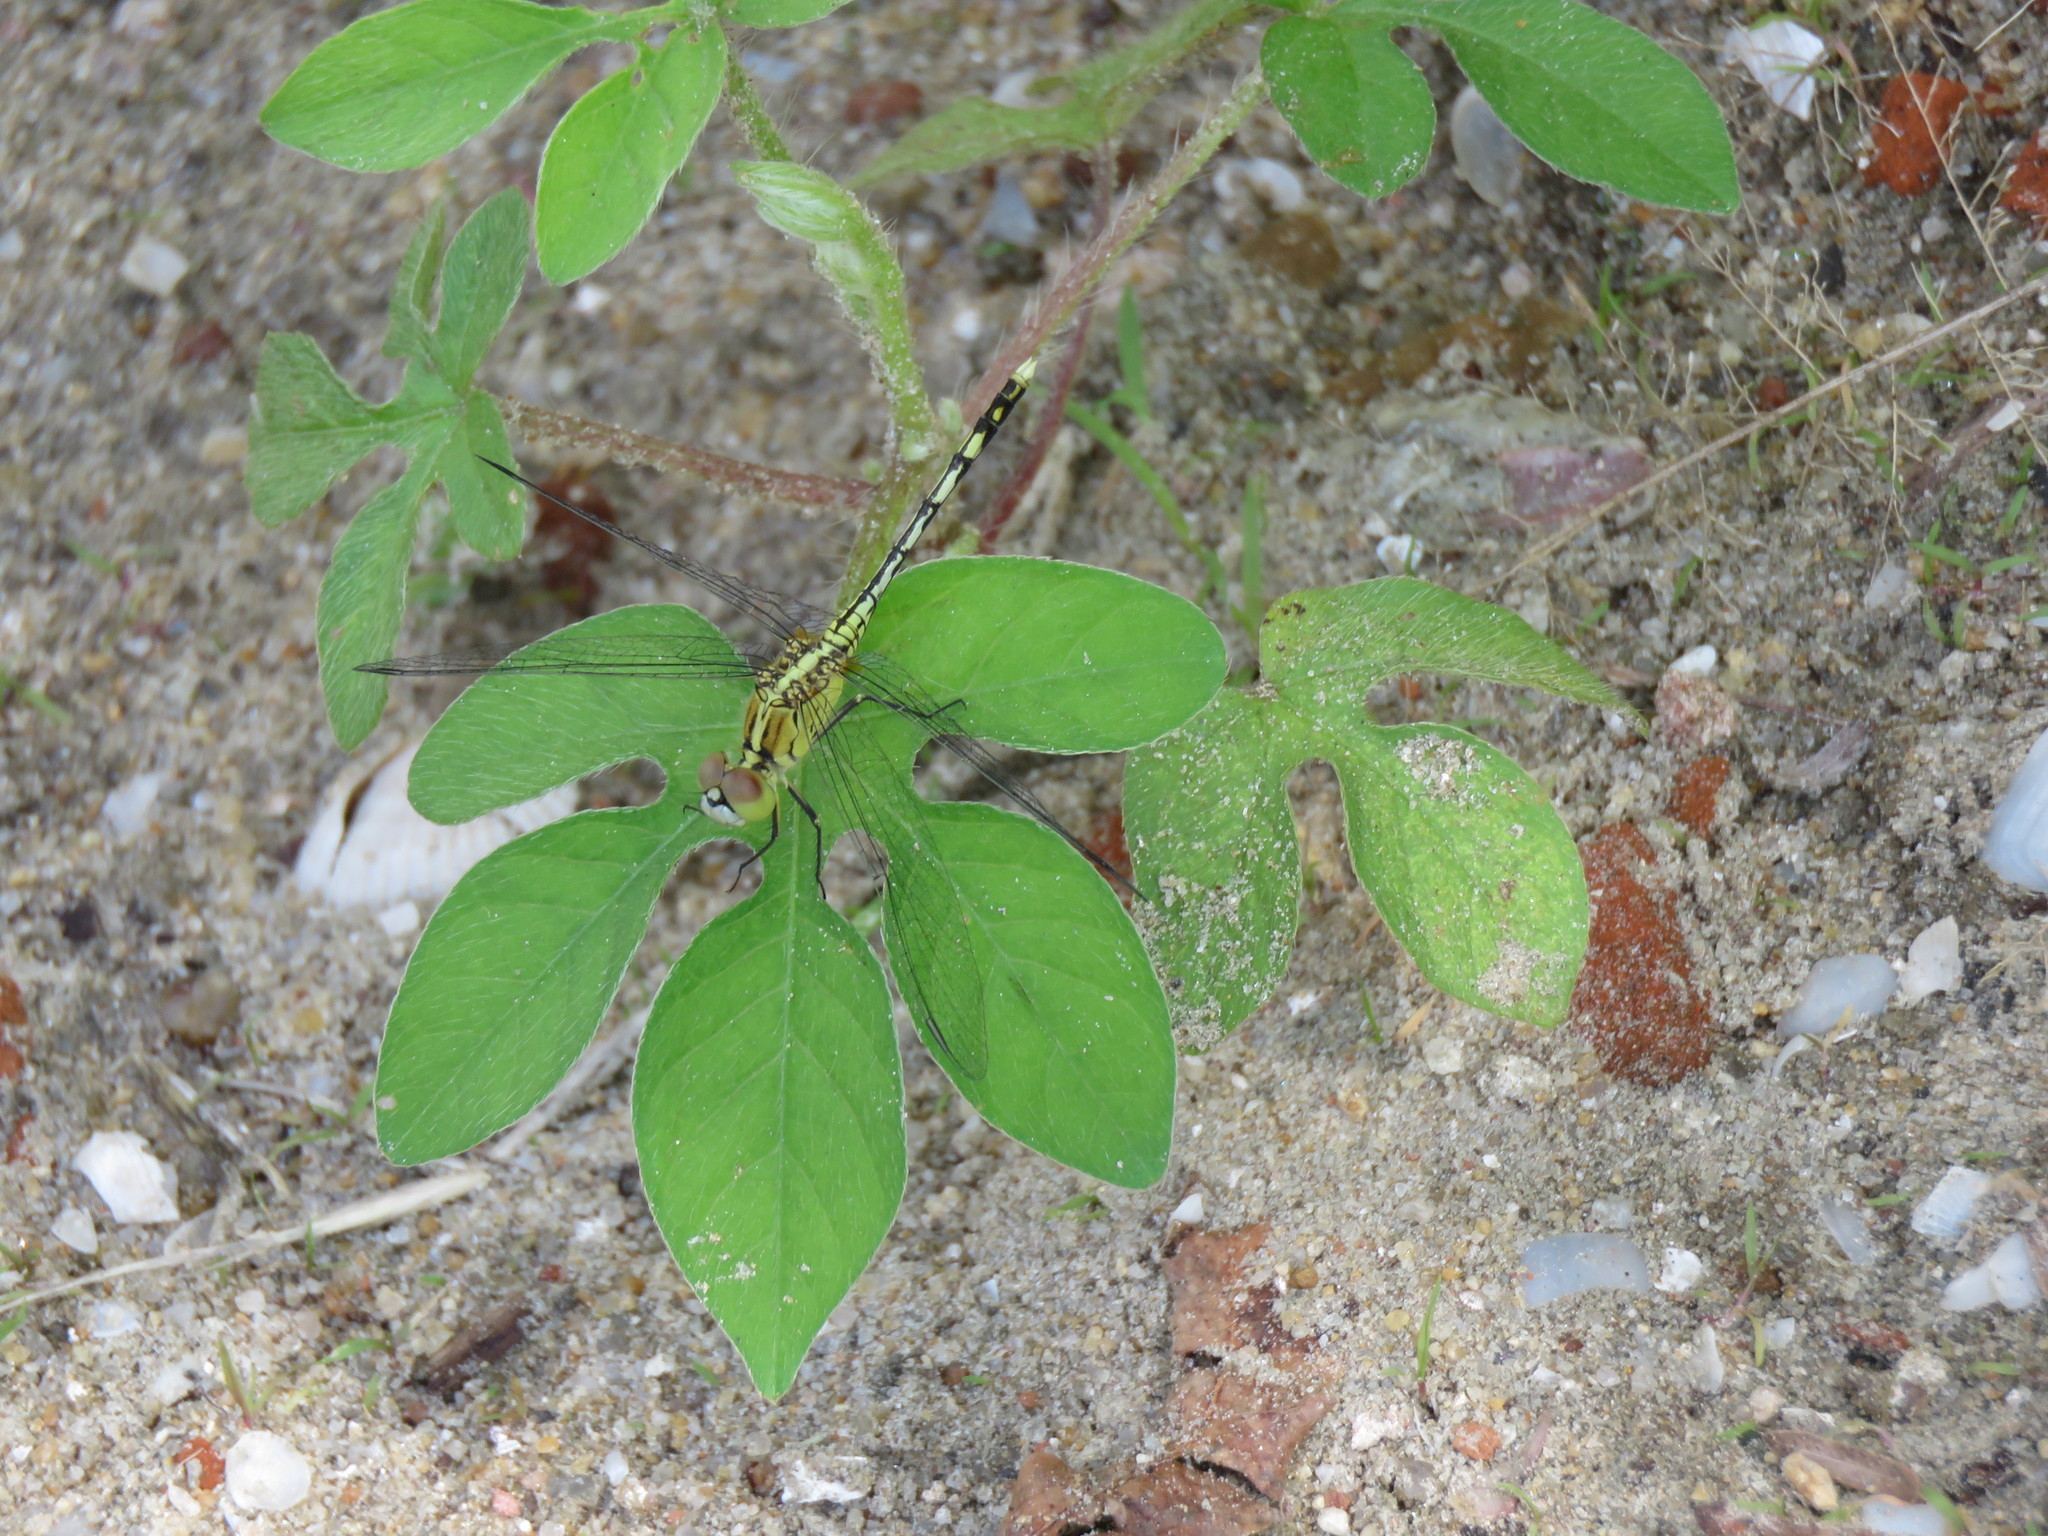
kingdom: Animalia
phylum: Arthropoda
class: Insecta
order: Odonata
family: Libellulidae
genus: Diplacodes
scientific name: Diplacodes trivialis
